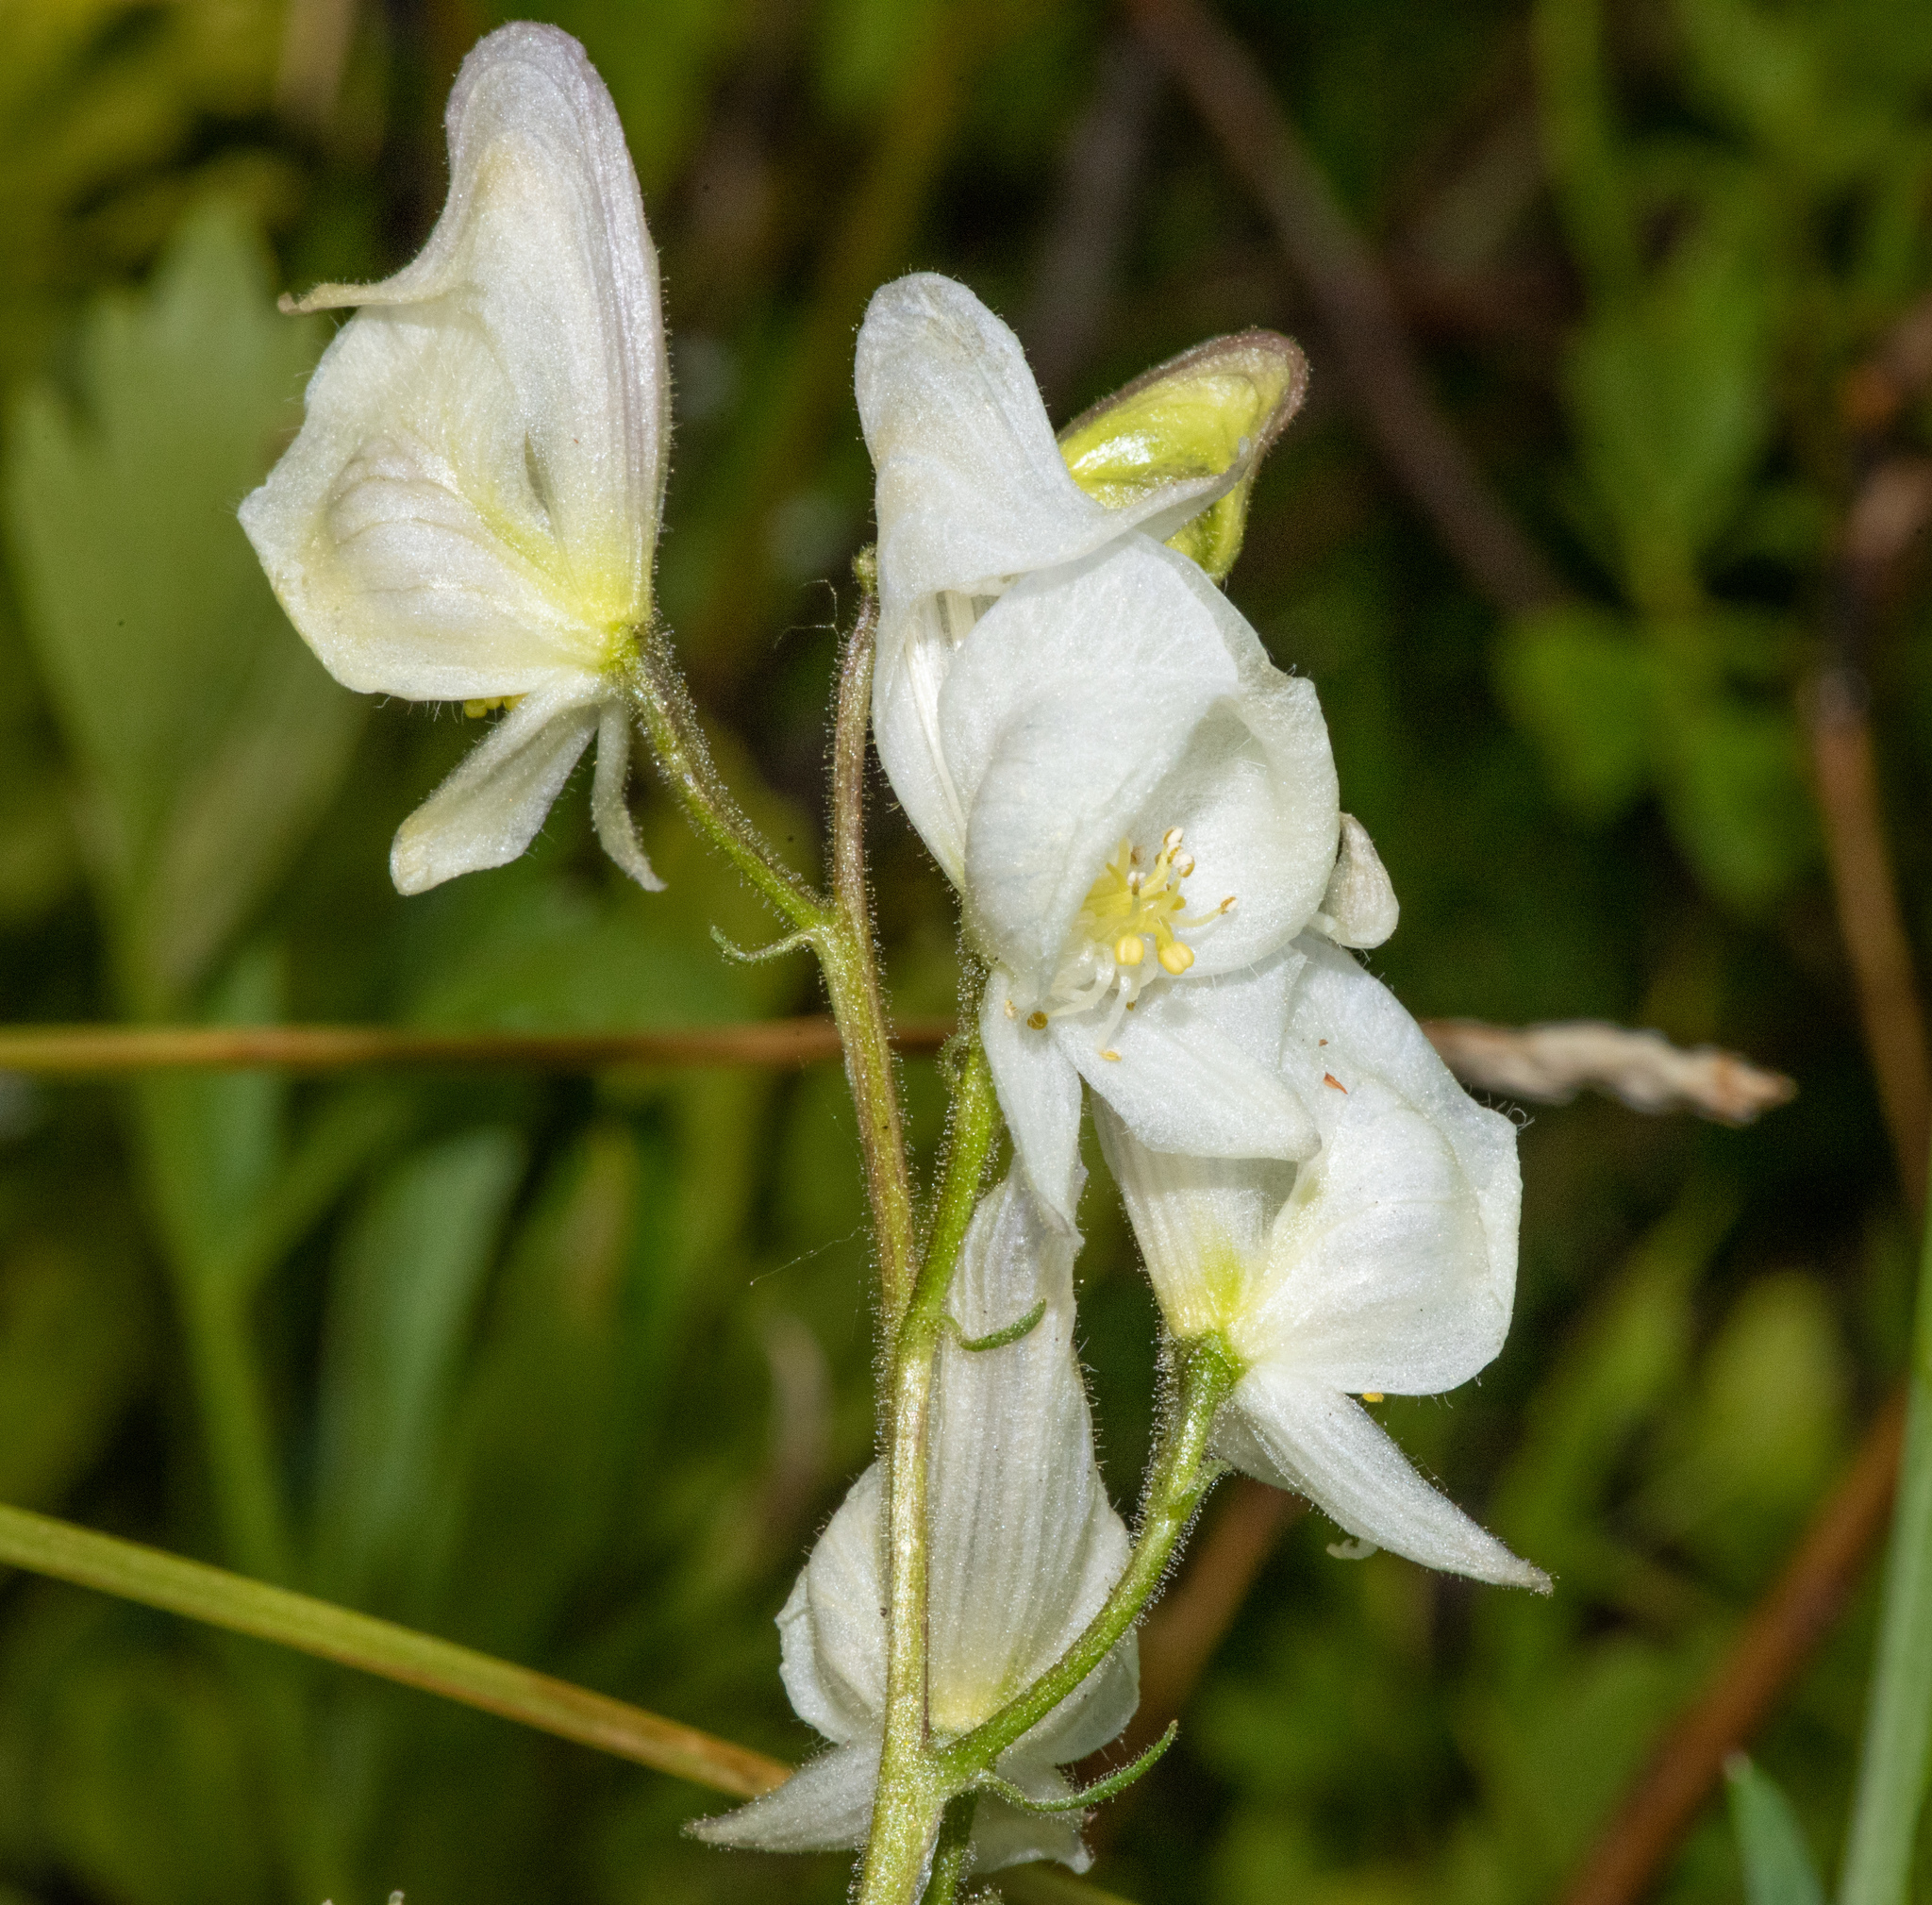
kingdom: Plantae
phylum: Tracheophyta
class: Magnoliopsida
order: Ranunculales
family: Ranunculaceae
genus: Aconitum
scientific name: Aconitum columbianum
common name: Columbia aconite
